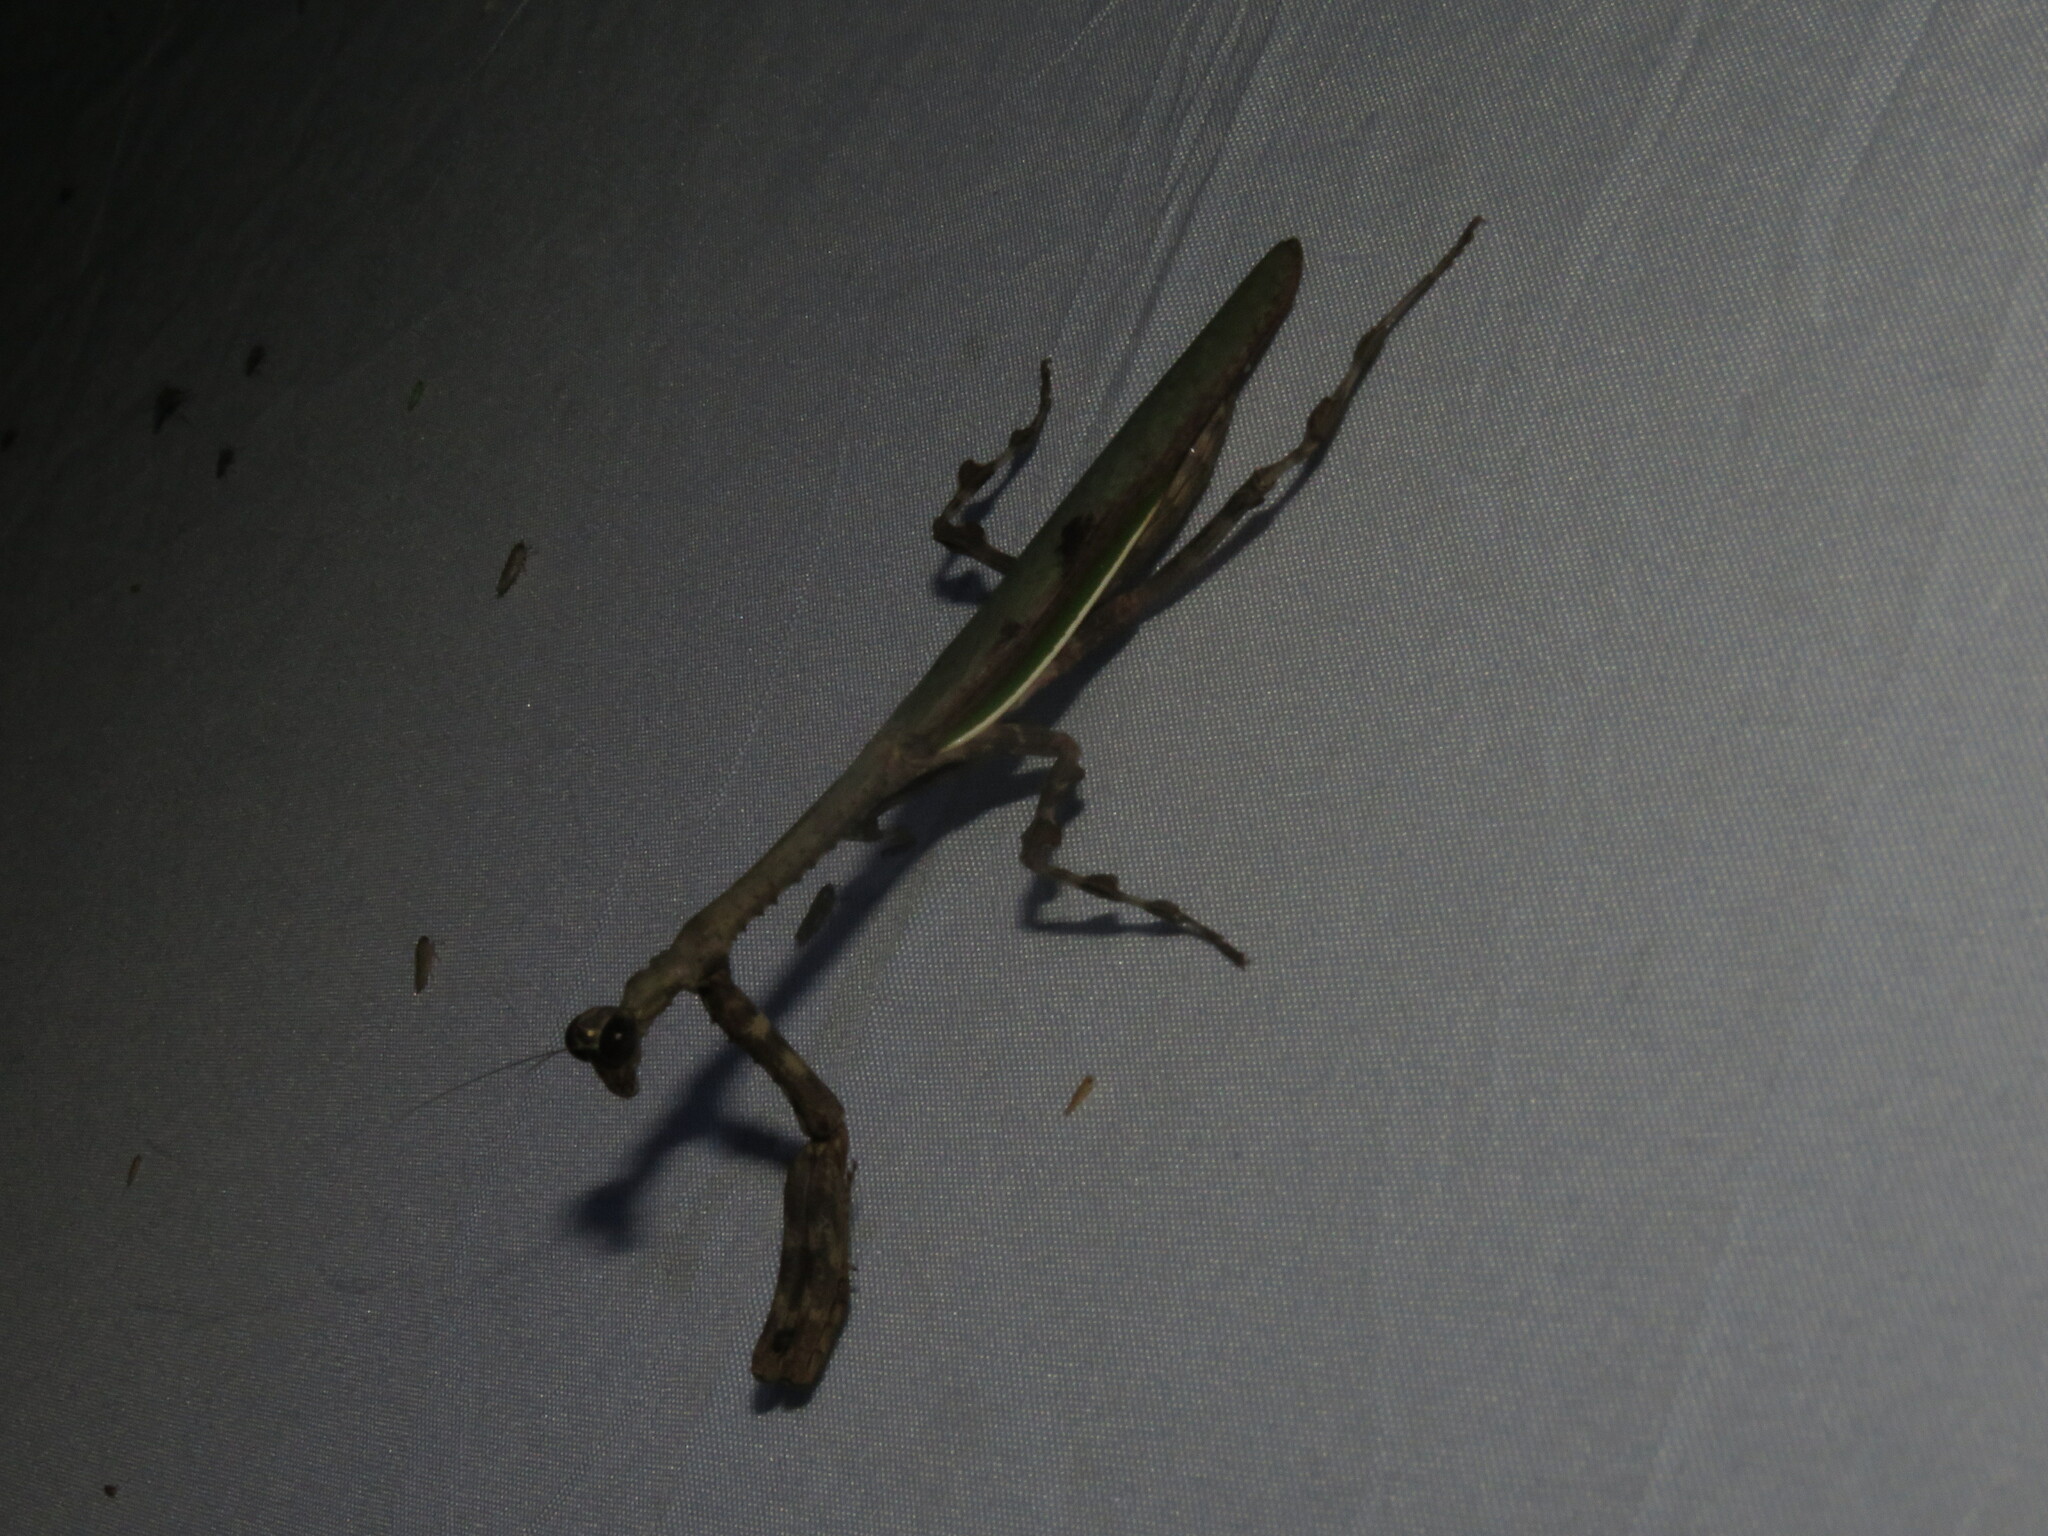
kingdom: Animalia
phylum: Arthropoda
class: Insecta
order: Mantodea
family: Mantidae
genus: Vates
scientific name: Vates biplagiata
